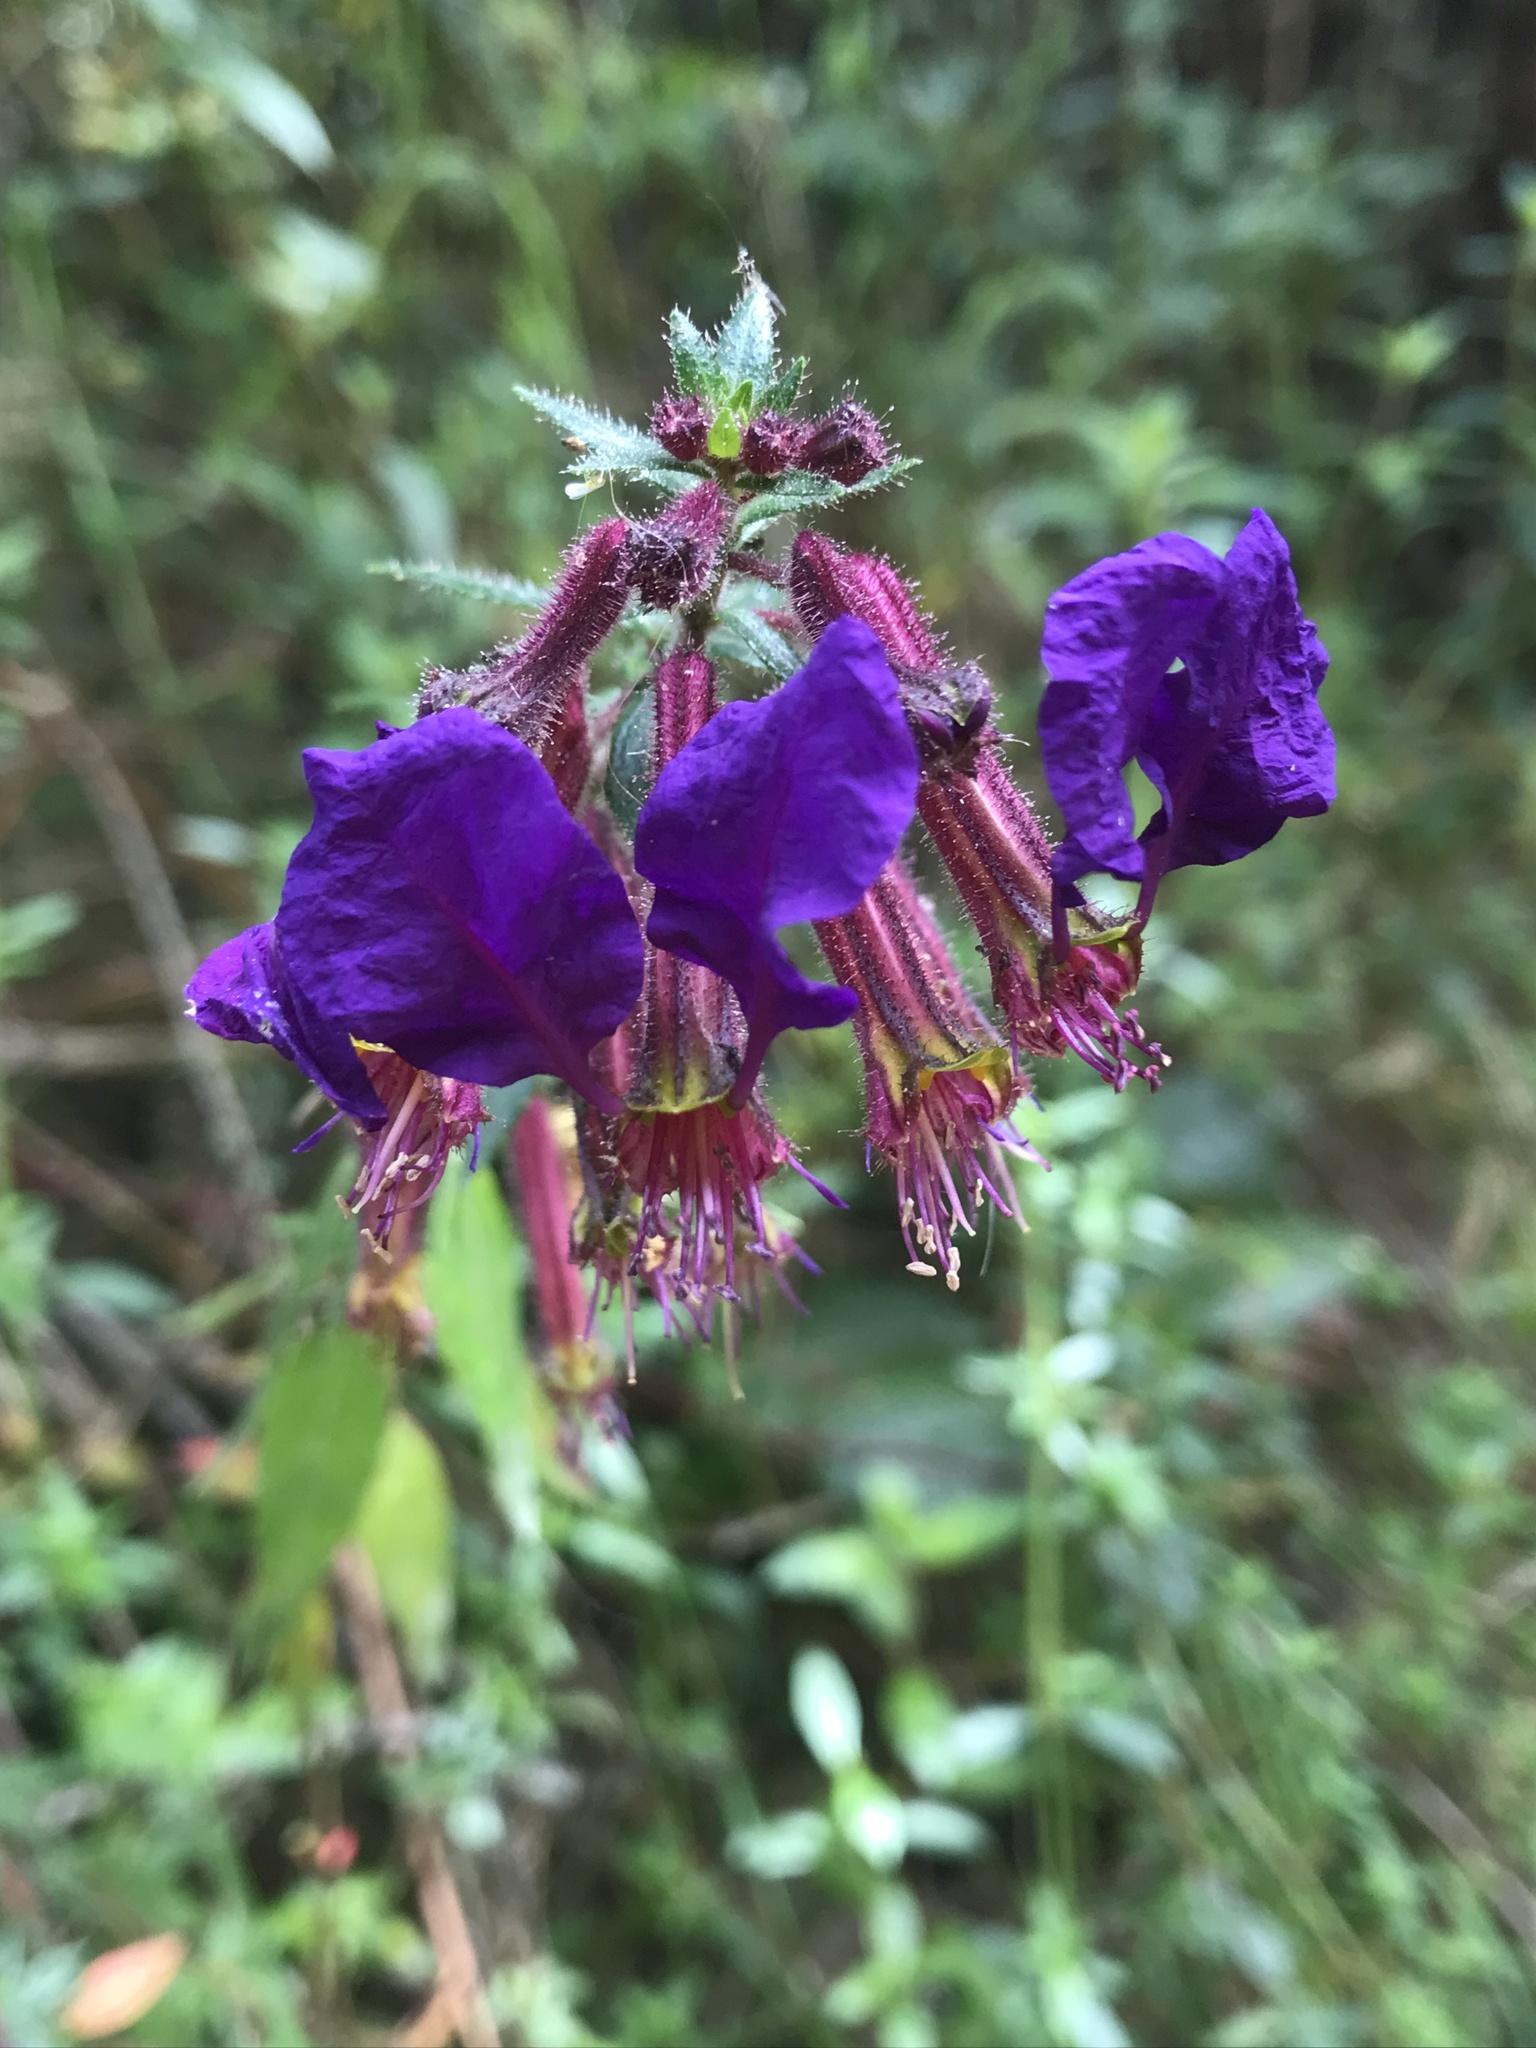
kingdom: Plantae
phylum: Tracheophyta
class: Magnoliopsida
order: Myrtales
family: Lythraceae
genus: Cuphea
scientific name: Cuphea dipetala
